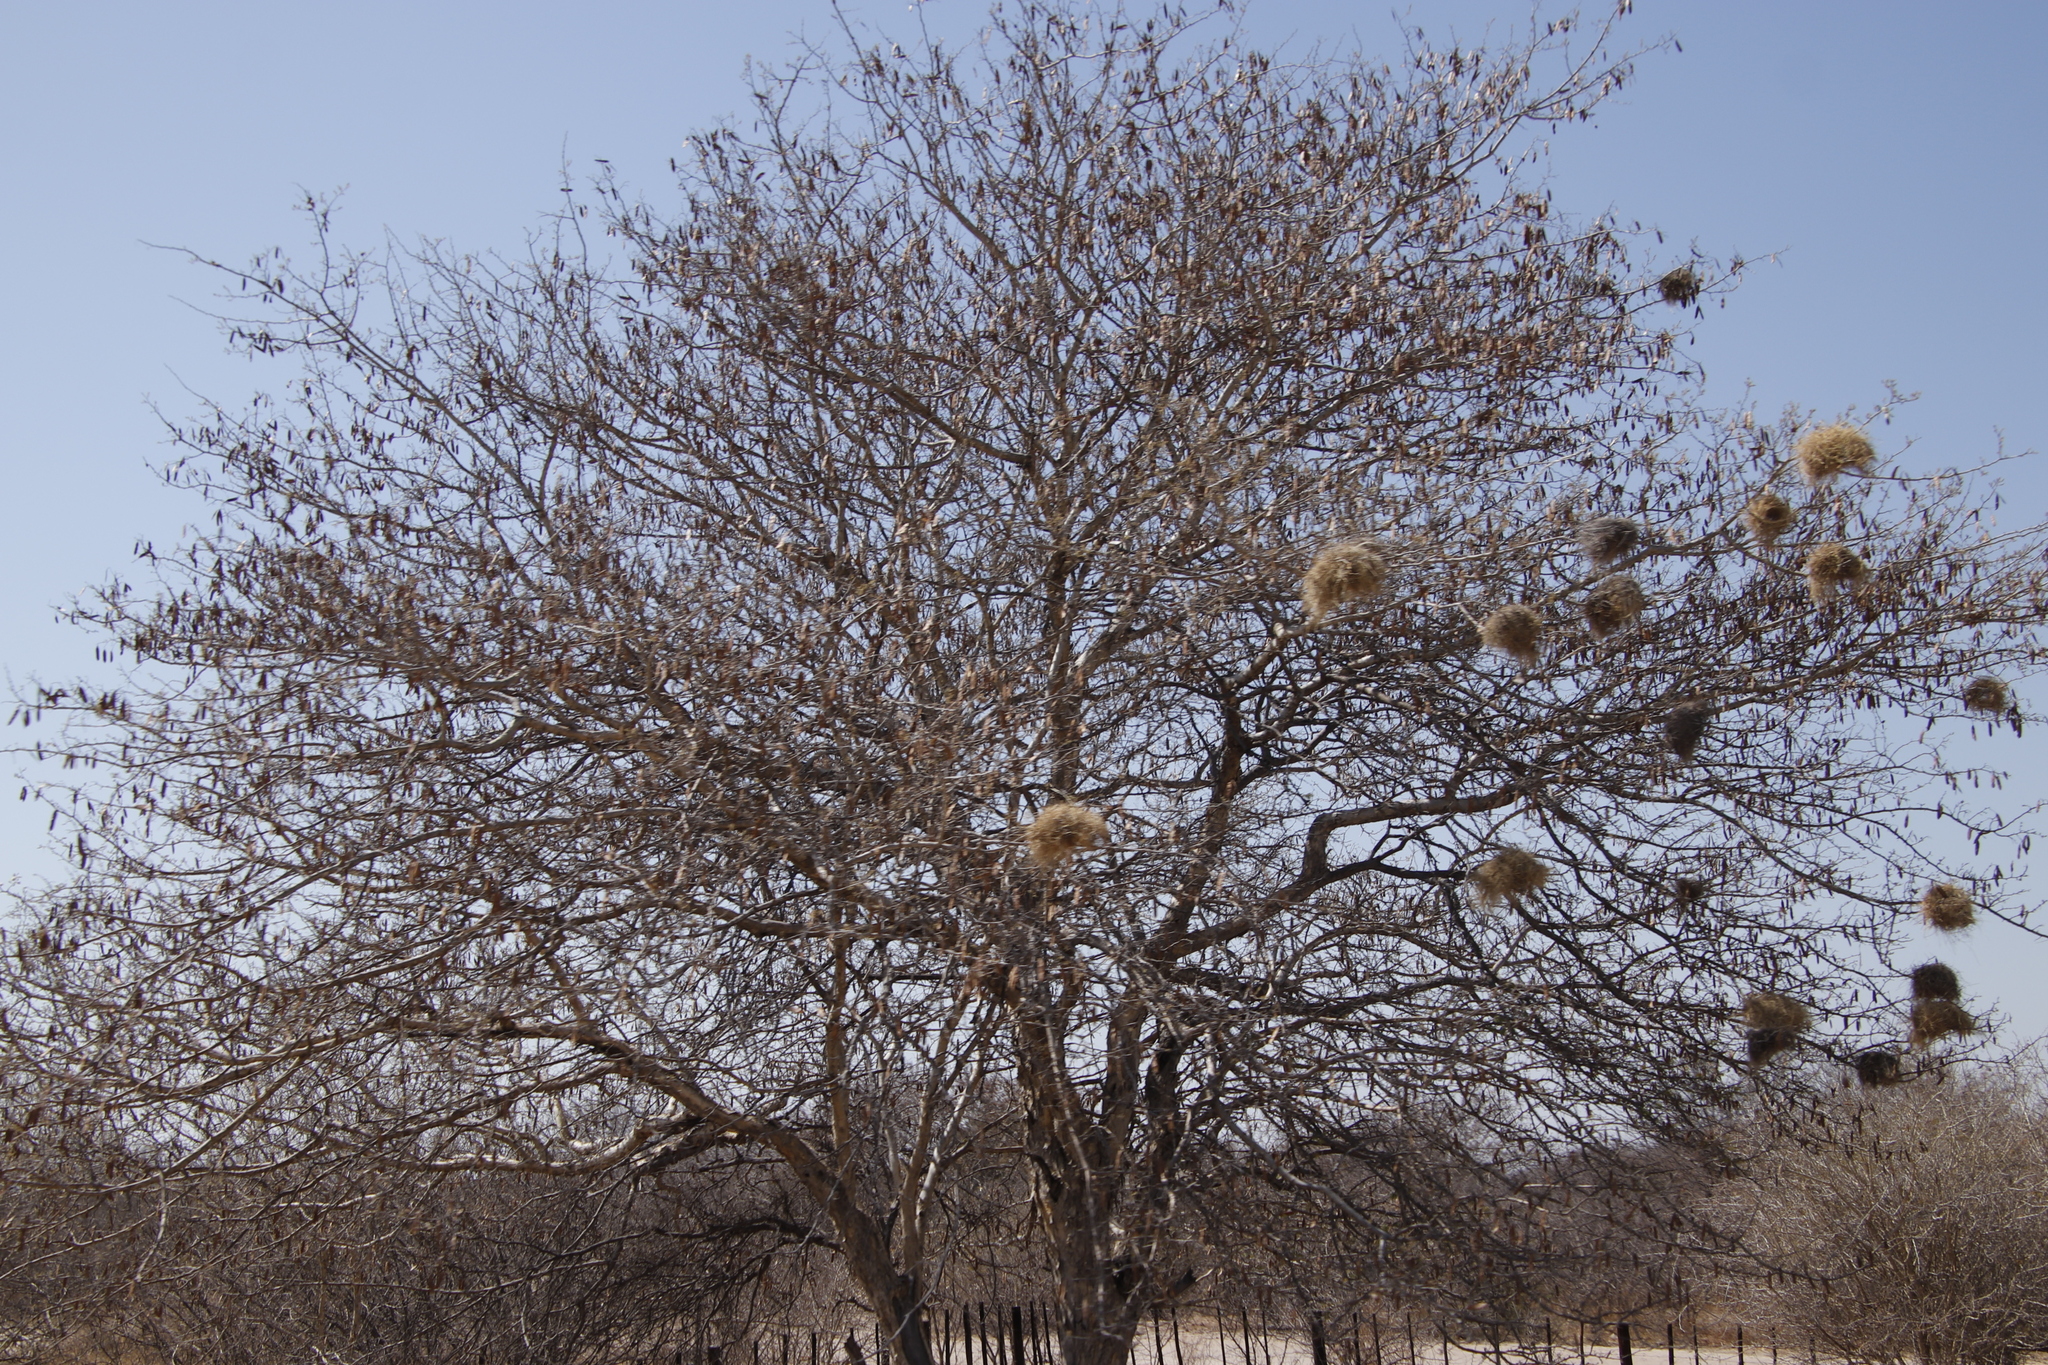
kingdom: Animalia
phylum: Chordata
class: Aves
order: Passeriformes
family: Passeridae
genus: Plocepasser
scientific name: Plocepasser mahali
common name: White-browed sparrow-weaver
